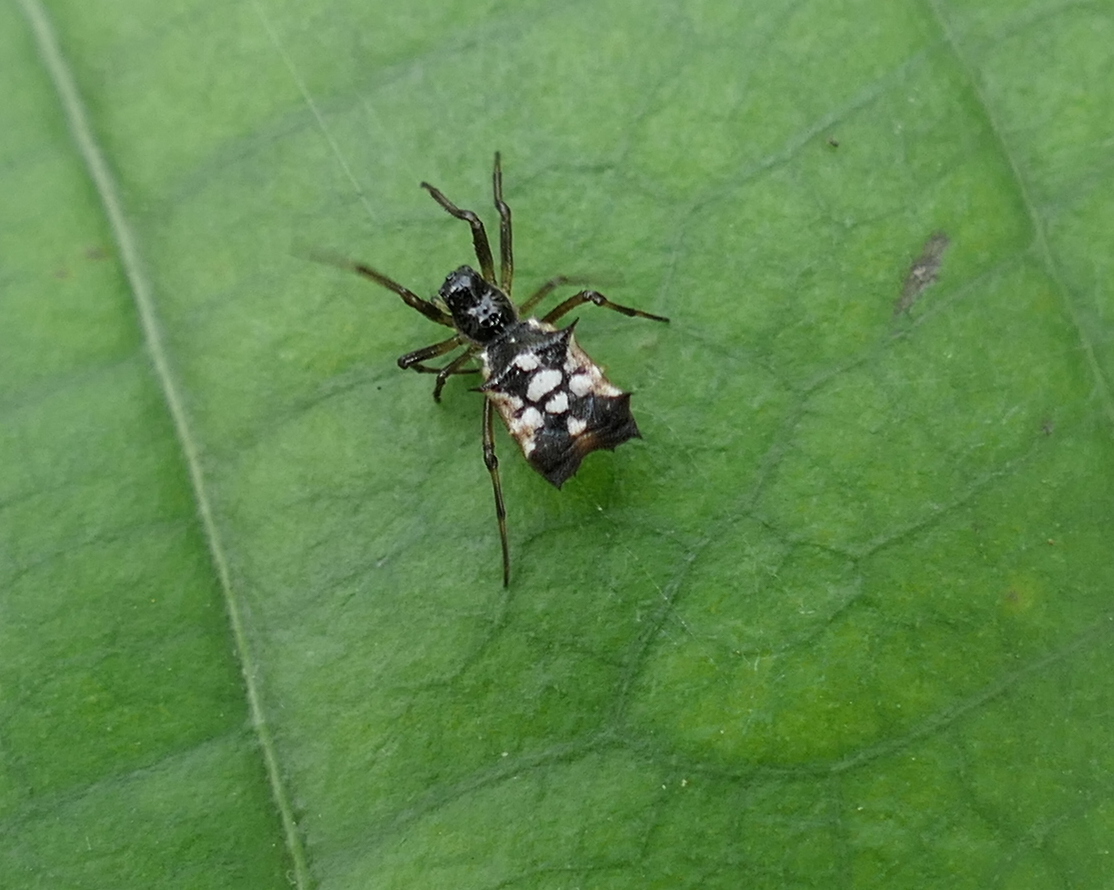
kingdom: Animalia
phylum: Arthropoda
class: Arachnida
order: Araneae
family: Araneidae
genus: Micrathena
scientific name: Micrathena picta
